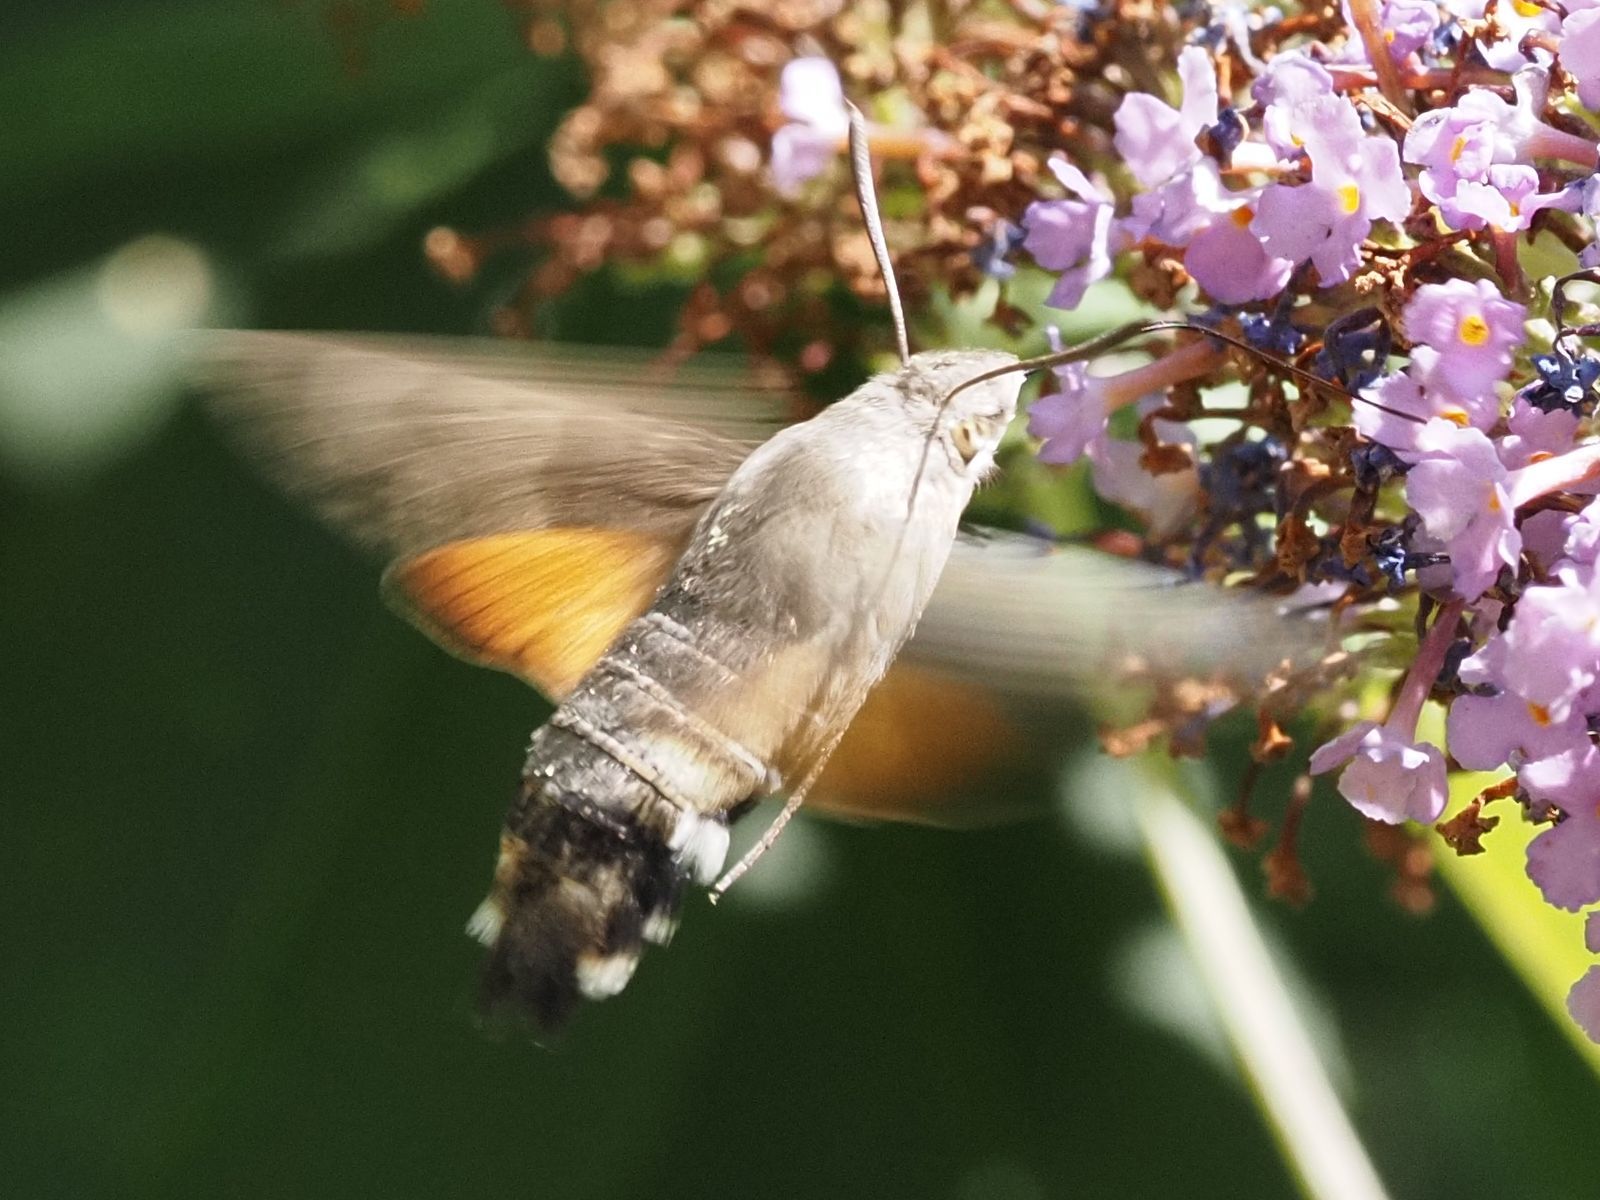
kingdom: Animalia
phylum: Arthropoda
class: Insecta
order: Lepidoptera
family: Sphingidae
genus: Macroglossum
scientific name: Macroglossum stellatarum
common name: Humming-bird hawk-moth
